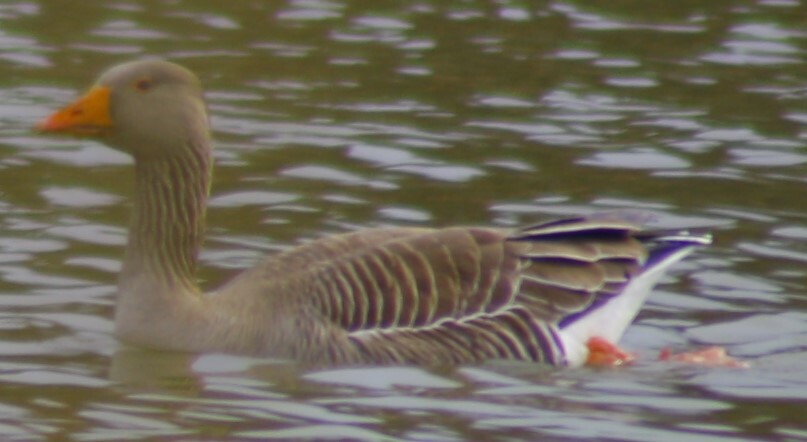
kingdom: Animalia
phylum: Chordata
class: Aves
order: Anseriformes
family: Anatidae
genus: Anser
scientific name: Anser anser
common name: Greylag goose
